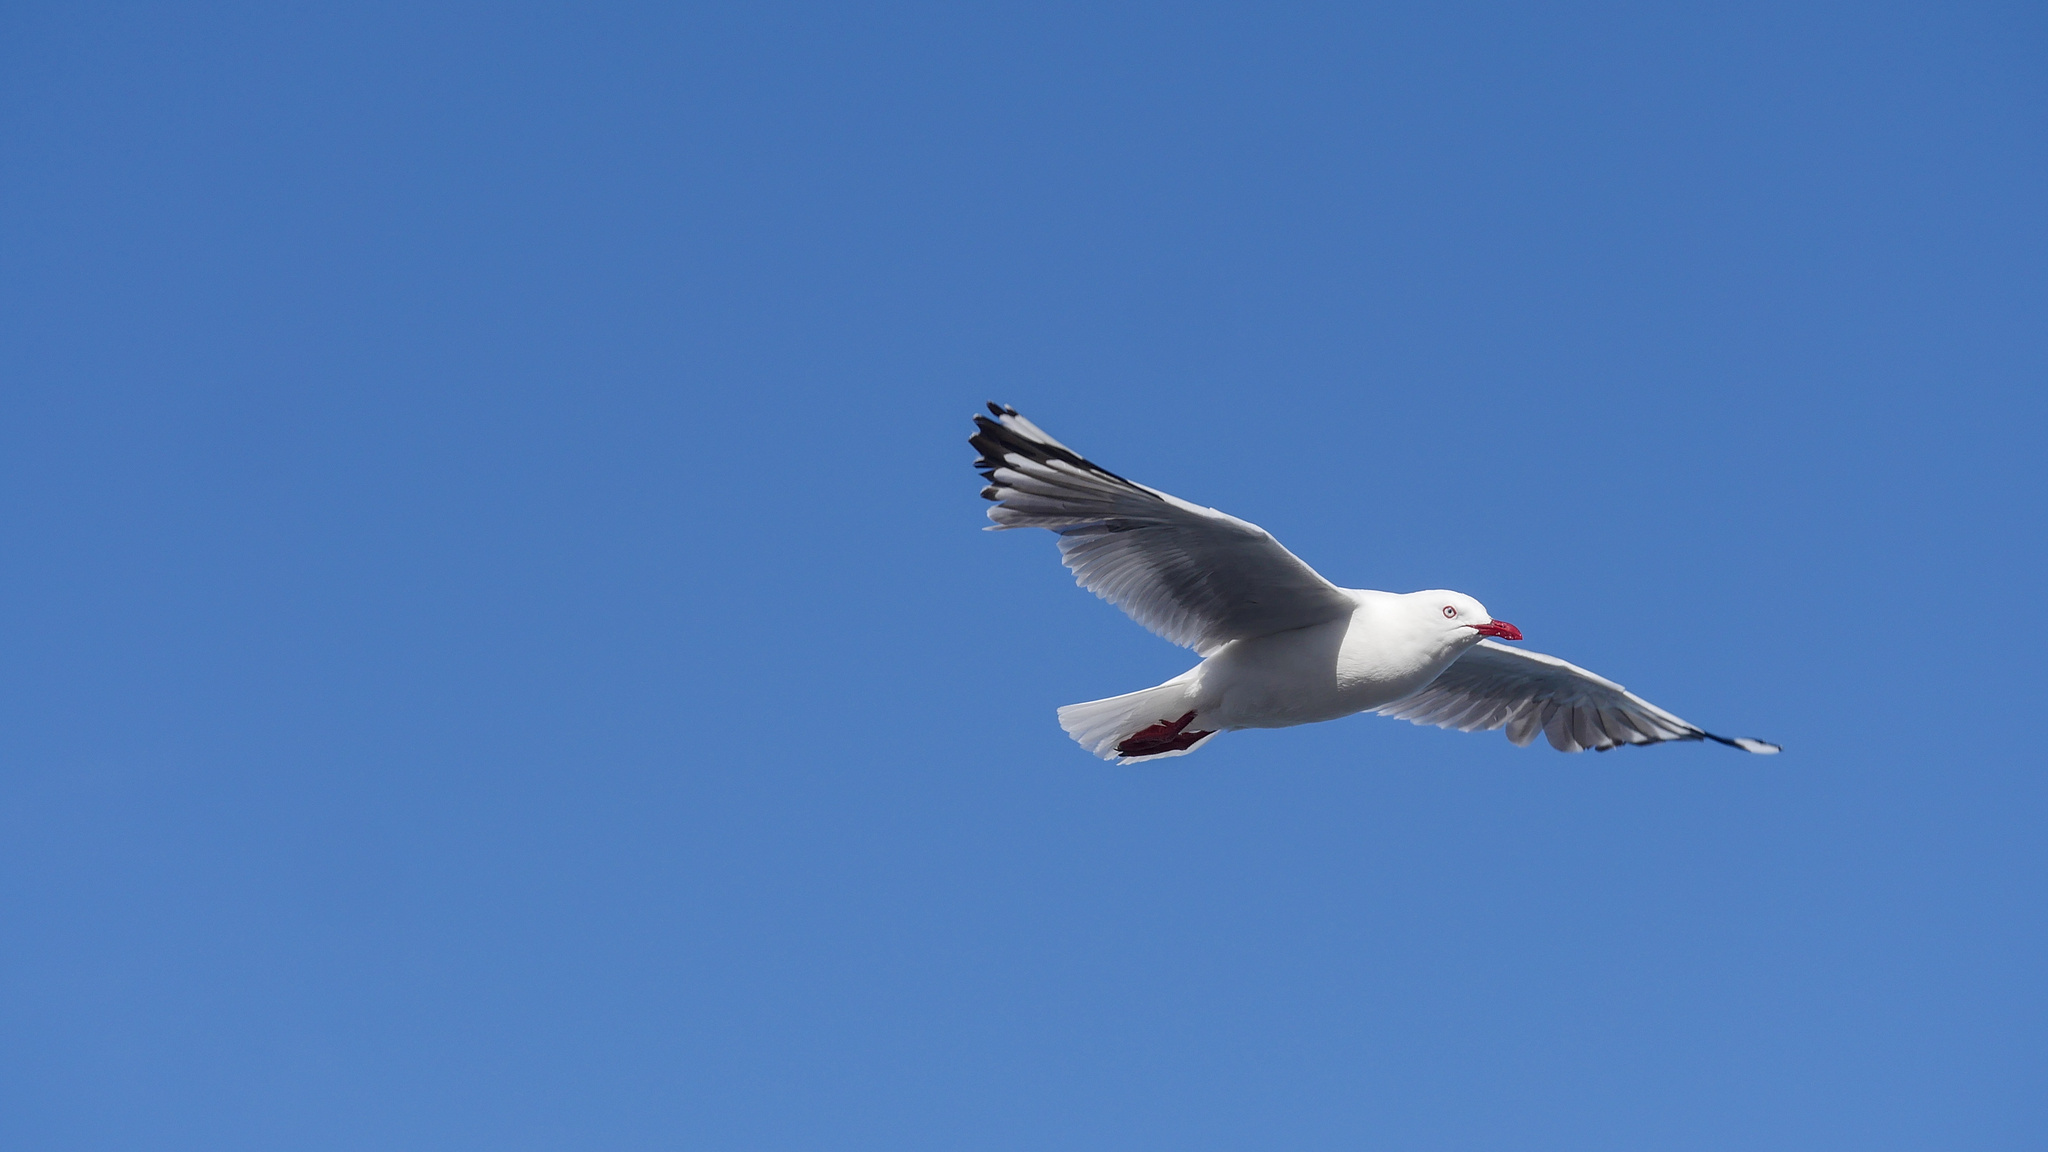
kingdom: Animalia
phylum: Chordata
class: Aves
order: Charadriiformes
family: Laridae
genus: Chroicocephalus
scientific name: Chroicocephalus novaehollandiae
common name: Silver gull
